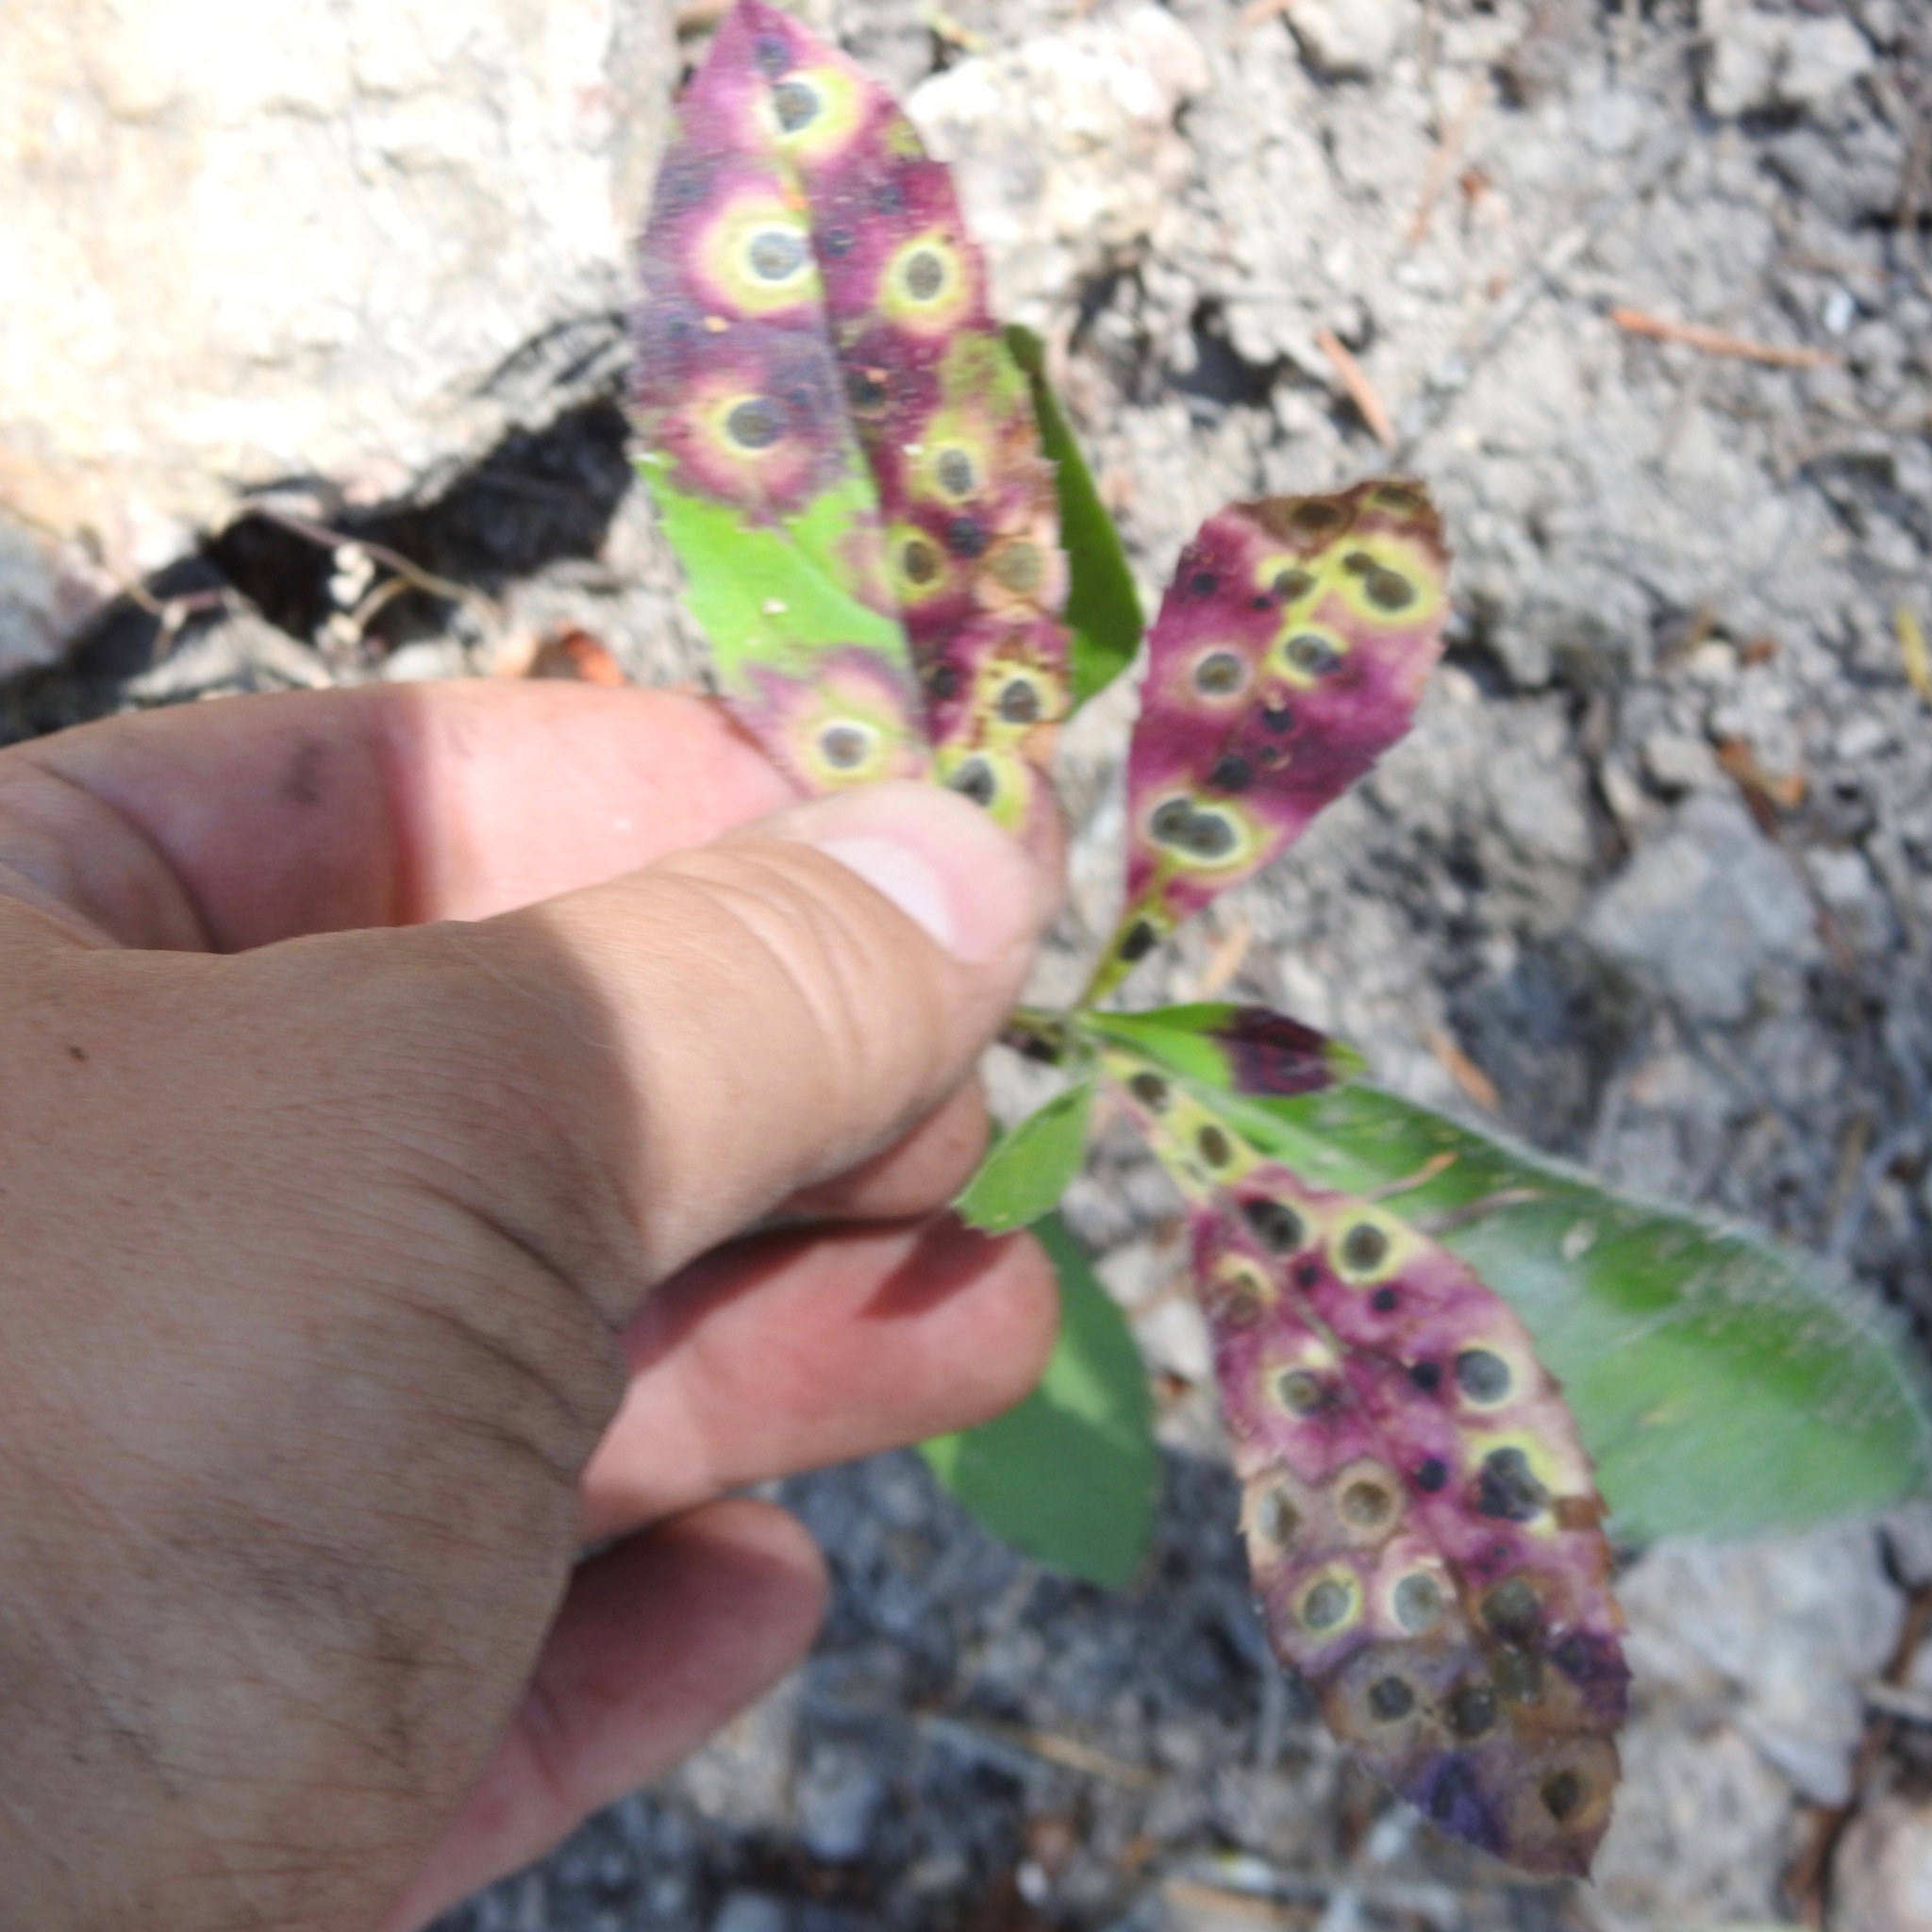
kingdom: Plantae
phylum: Tracheophyta
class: Magnoliopsida
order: Asterales
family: Asteraceae
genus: Eurybia
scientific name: Eurybia radulina
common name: Rough-leaved aster
